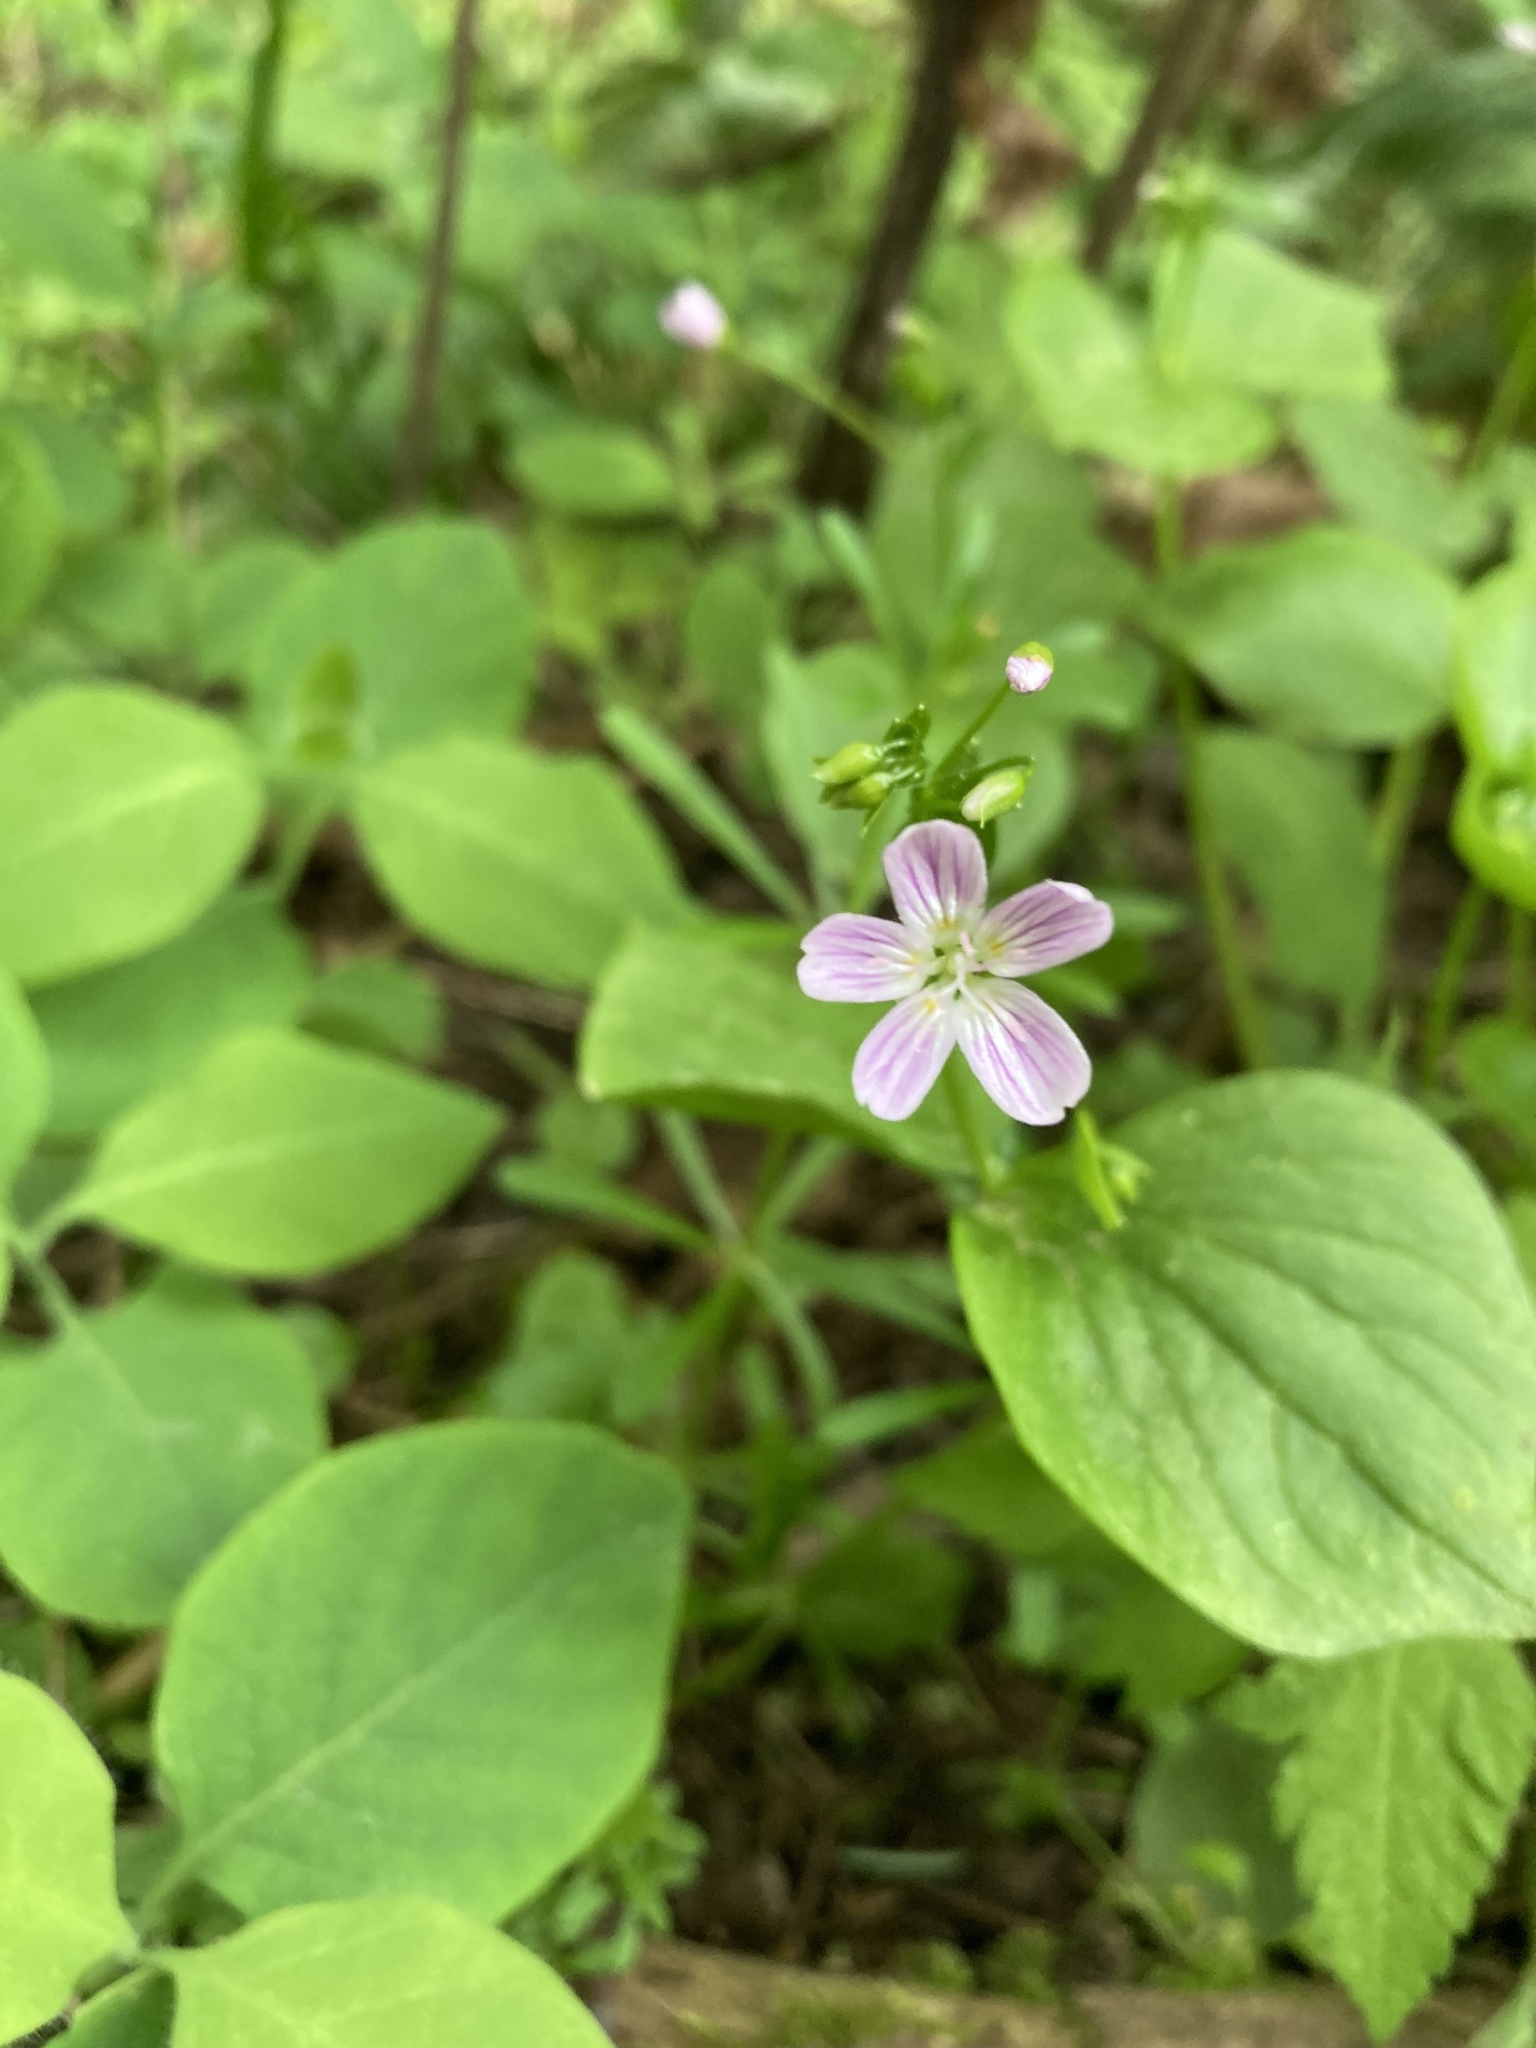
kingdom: Plantae
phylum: Tracheophyta
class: Magnoliopsida
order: Caryophyllales
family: Montiaceae
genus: Claytonia
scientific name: Claytonia sibirica
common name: Pink purslane
